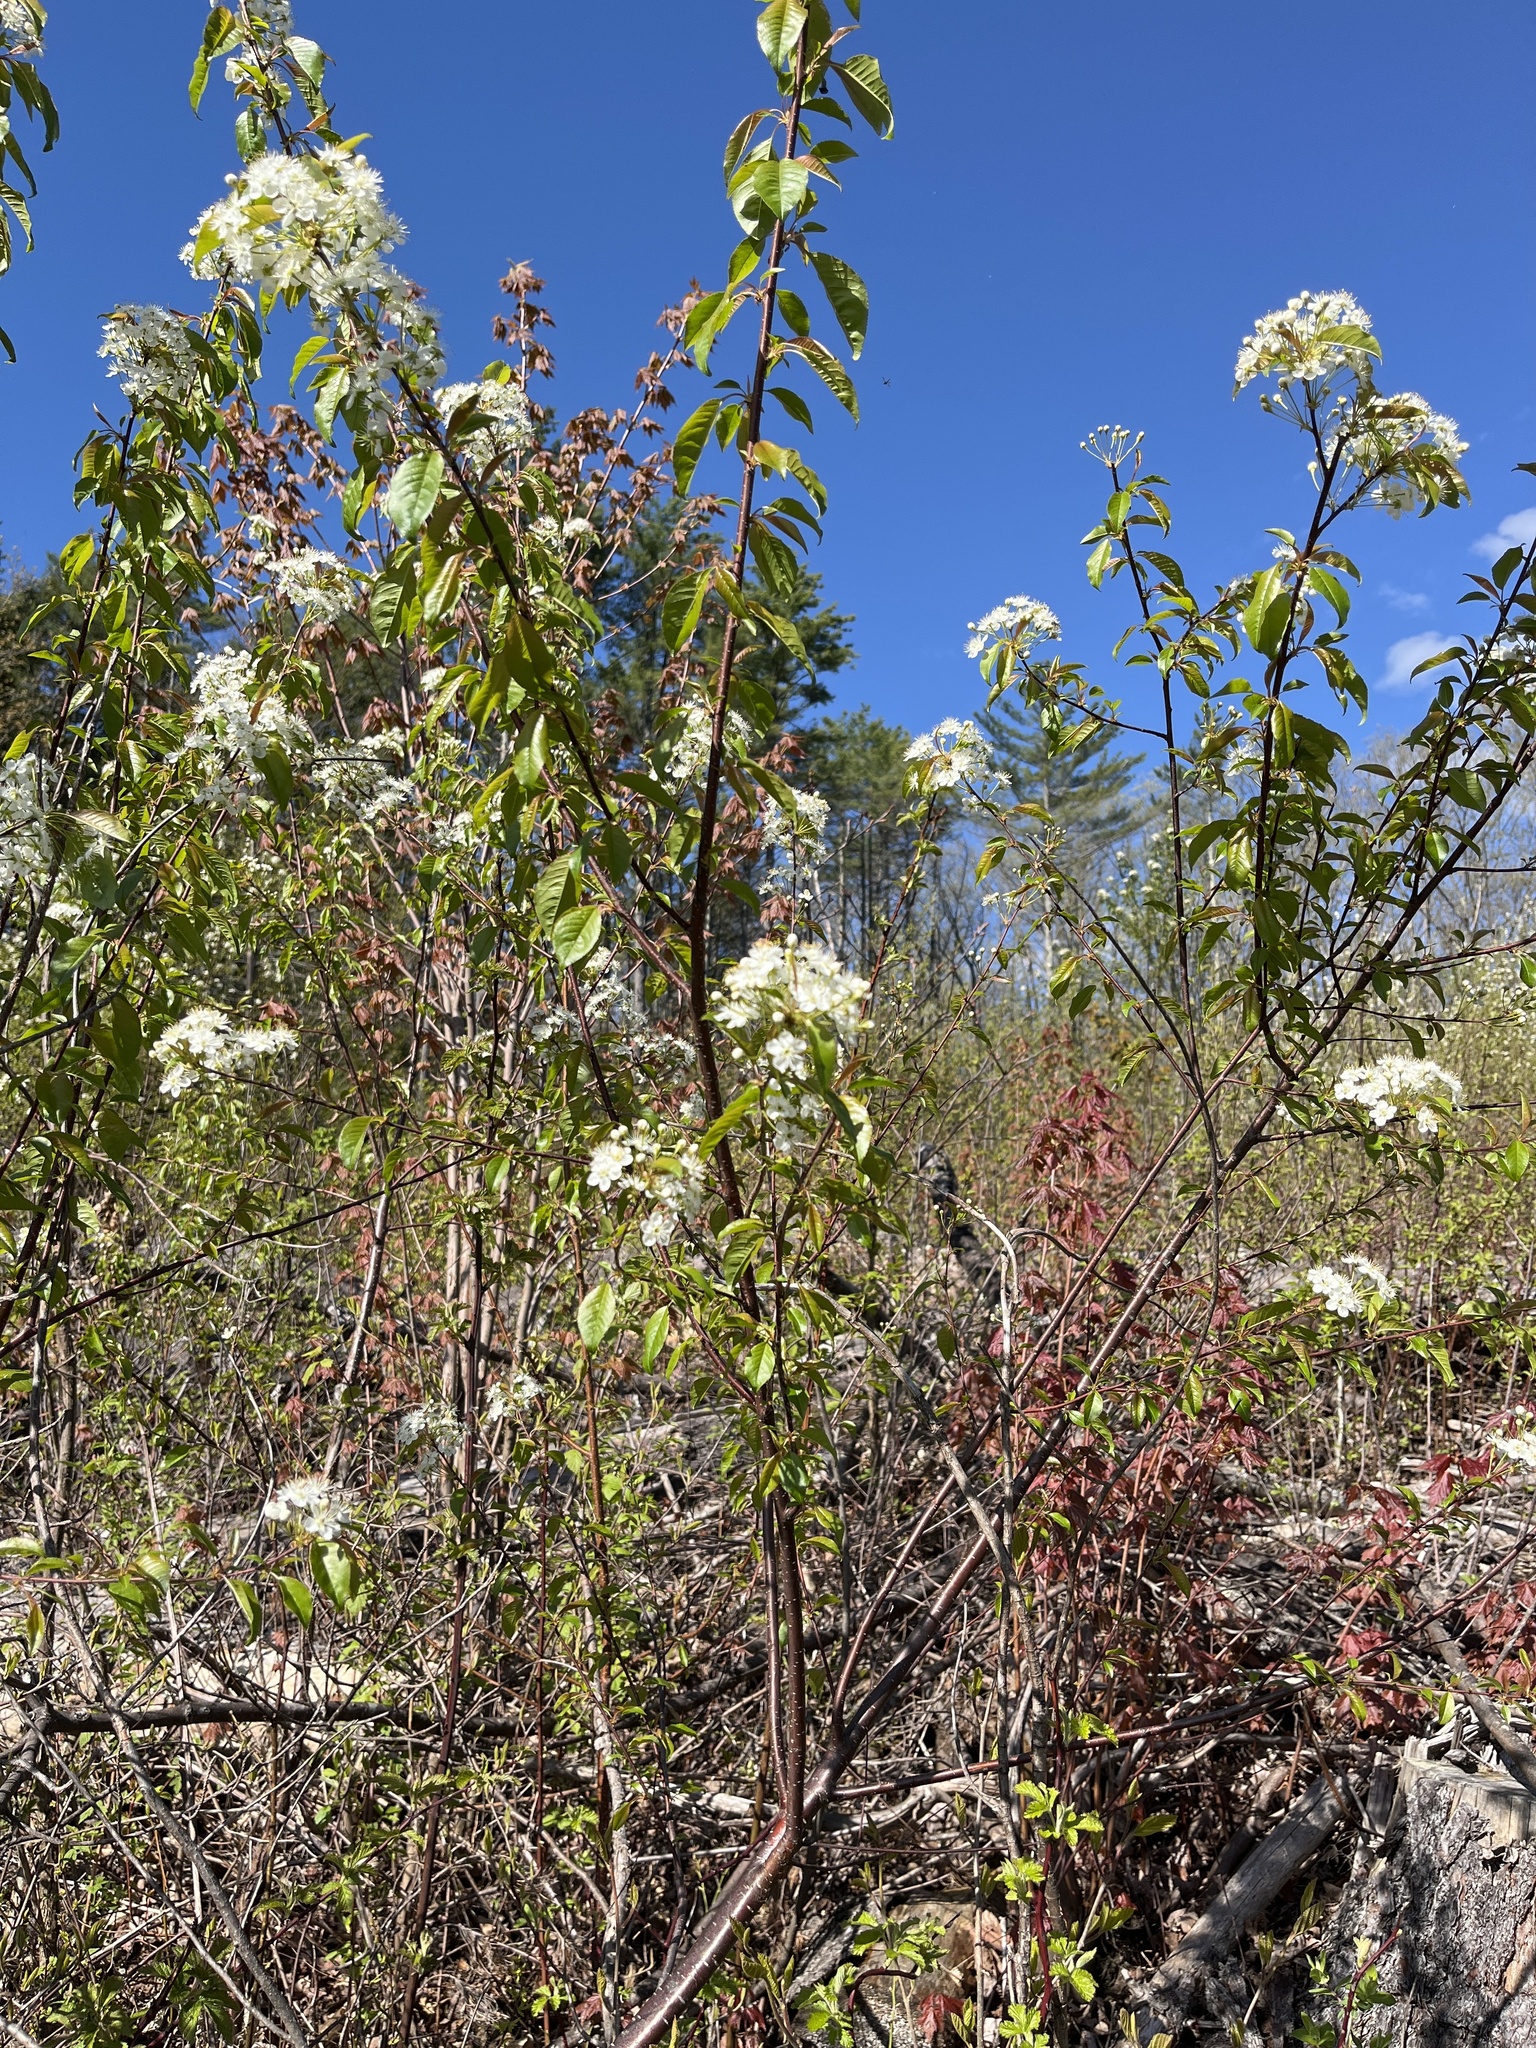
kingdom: Plantae
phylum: Tracheophyta
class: Magnoliopsida
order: Rosales
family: Rosaceae
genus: Prunus
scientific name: Prunus pensylvanica
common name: Pin cherry
